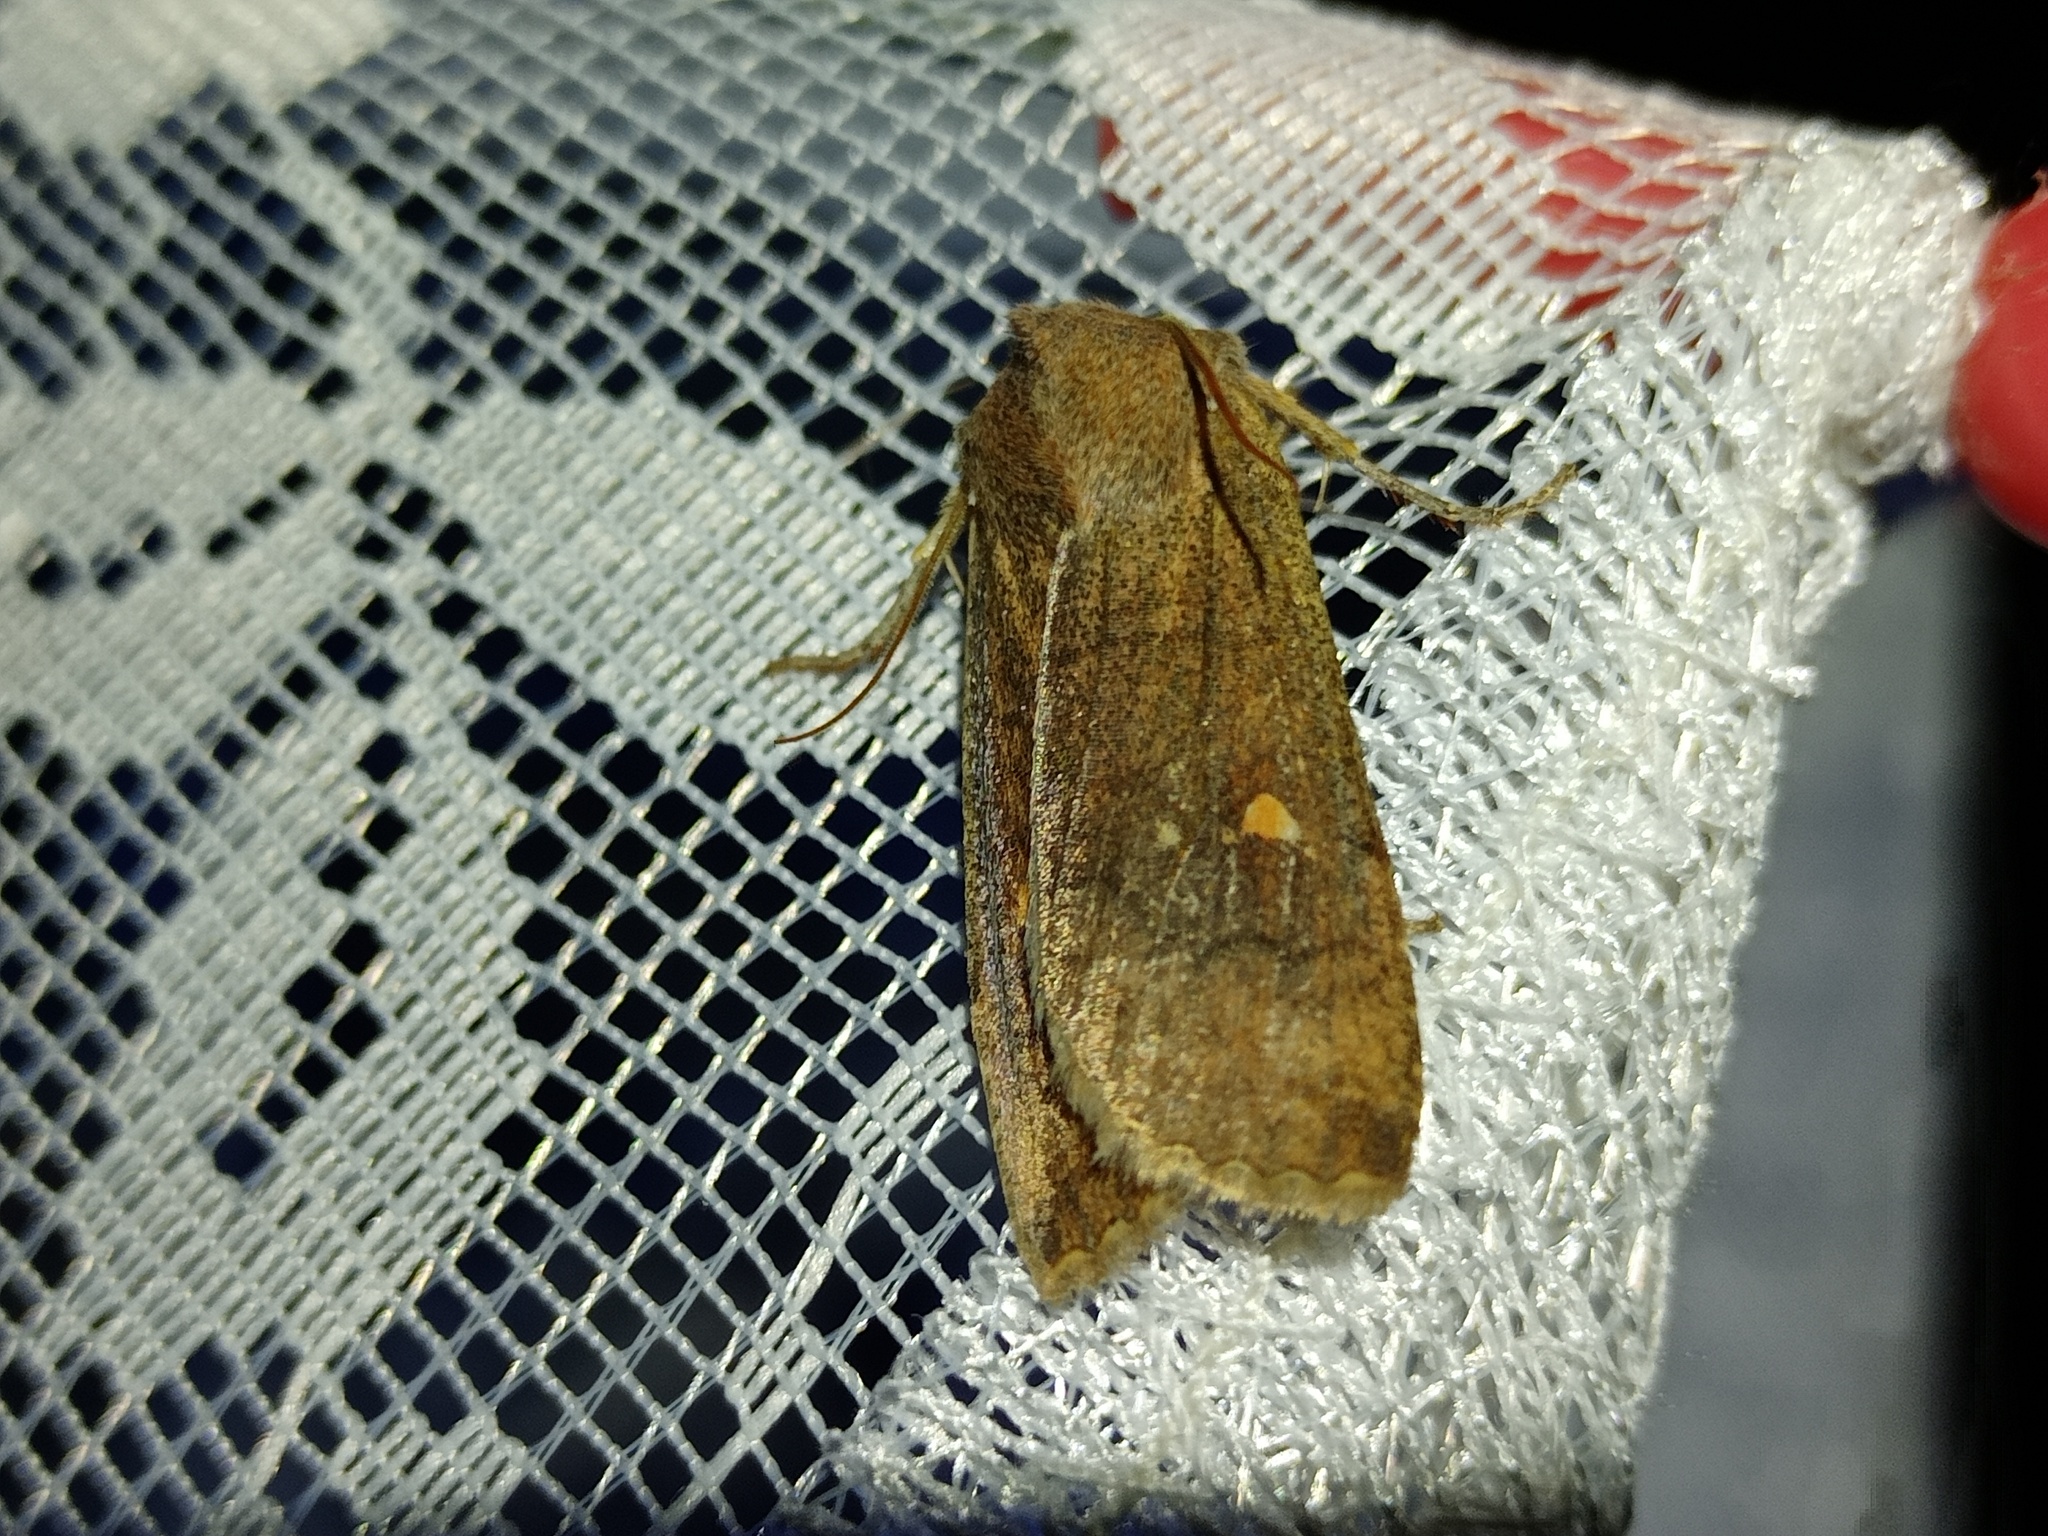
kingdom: Animalia
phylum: Arthropoda
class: Insecta
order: Lepidoptera
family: Noctuidae
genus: Eupsilia
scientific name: Eupsilia transversa
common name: Satellite
